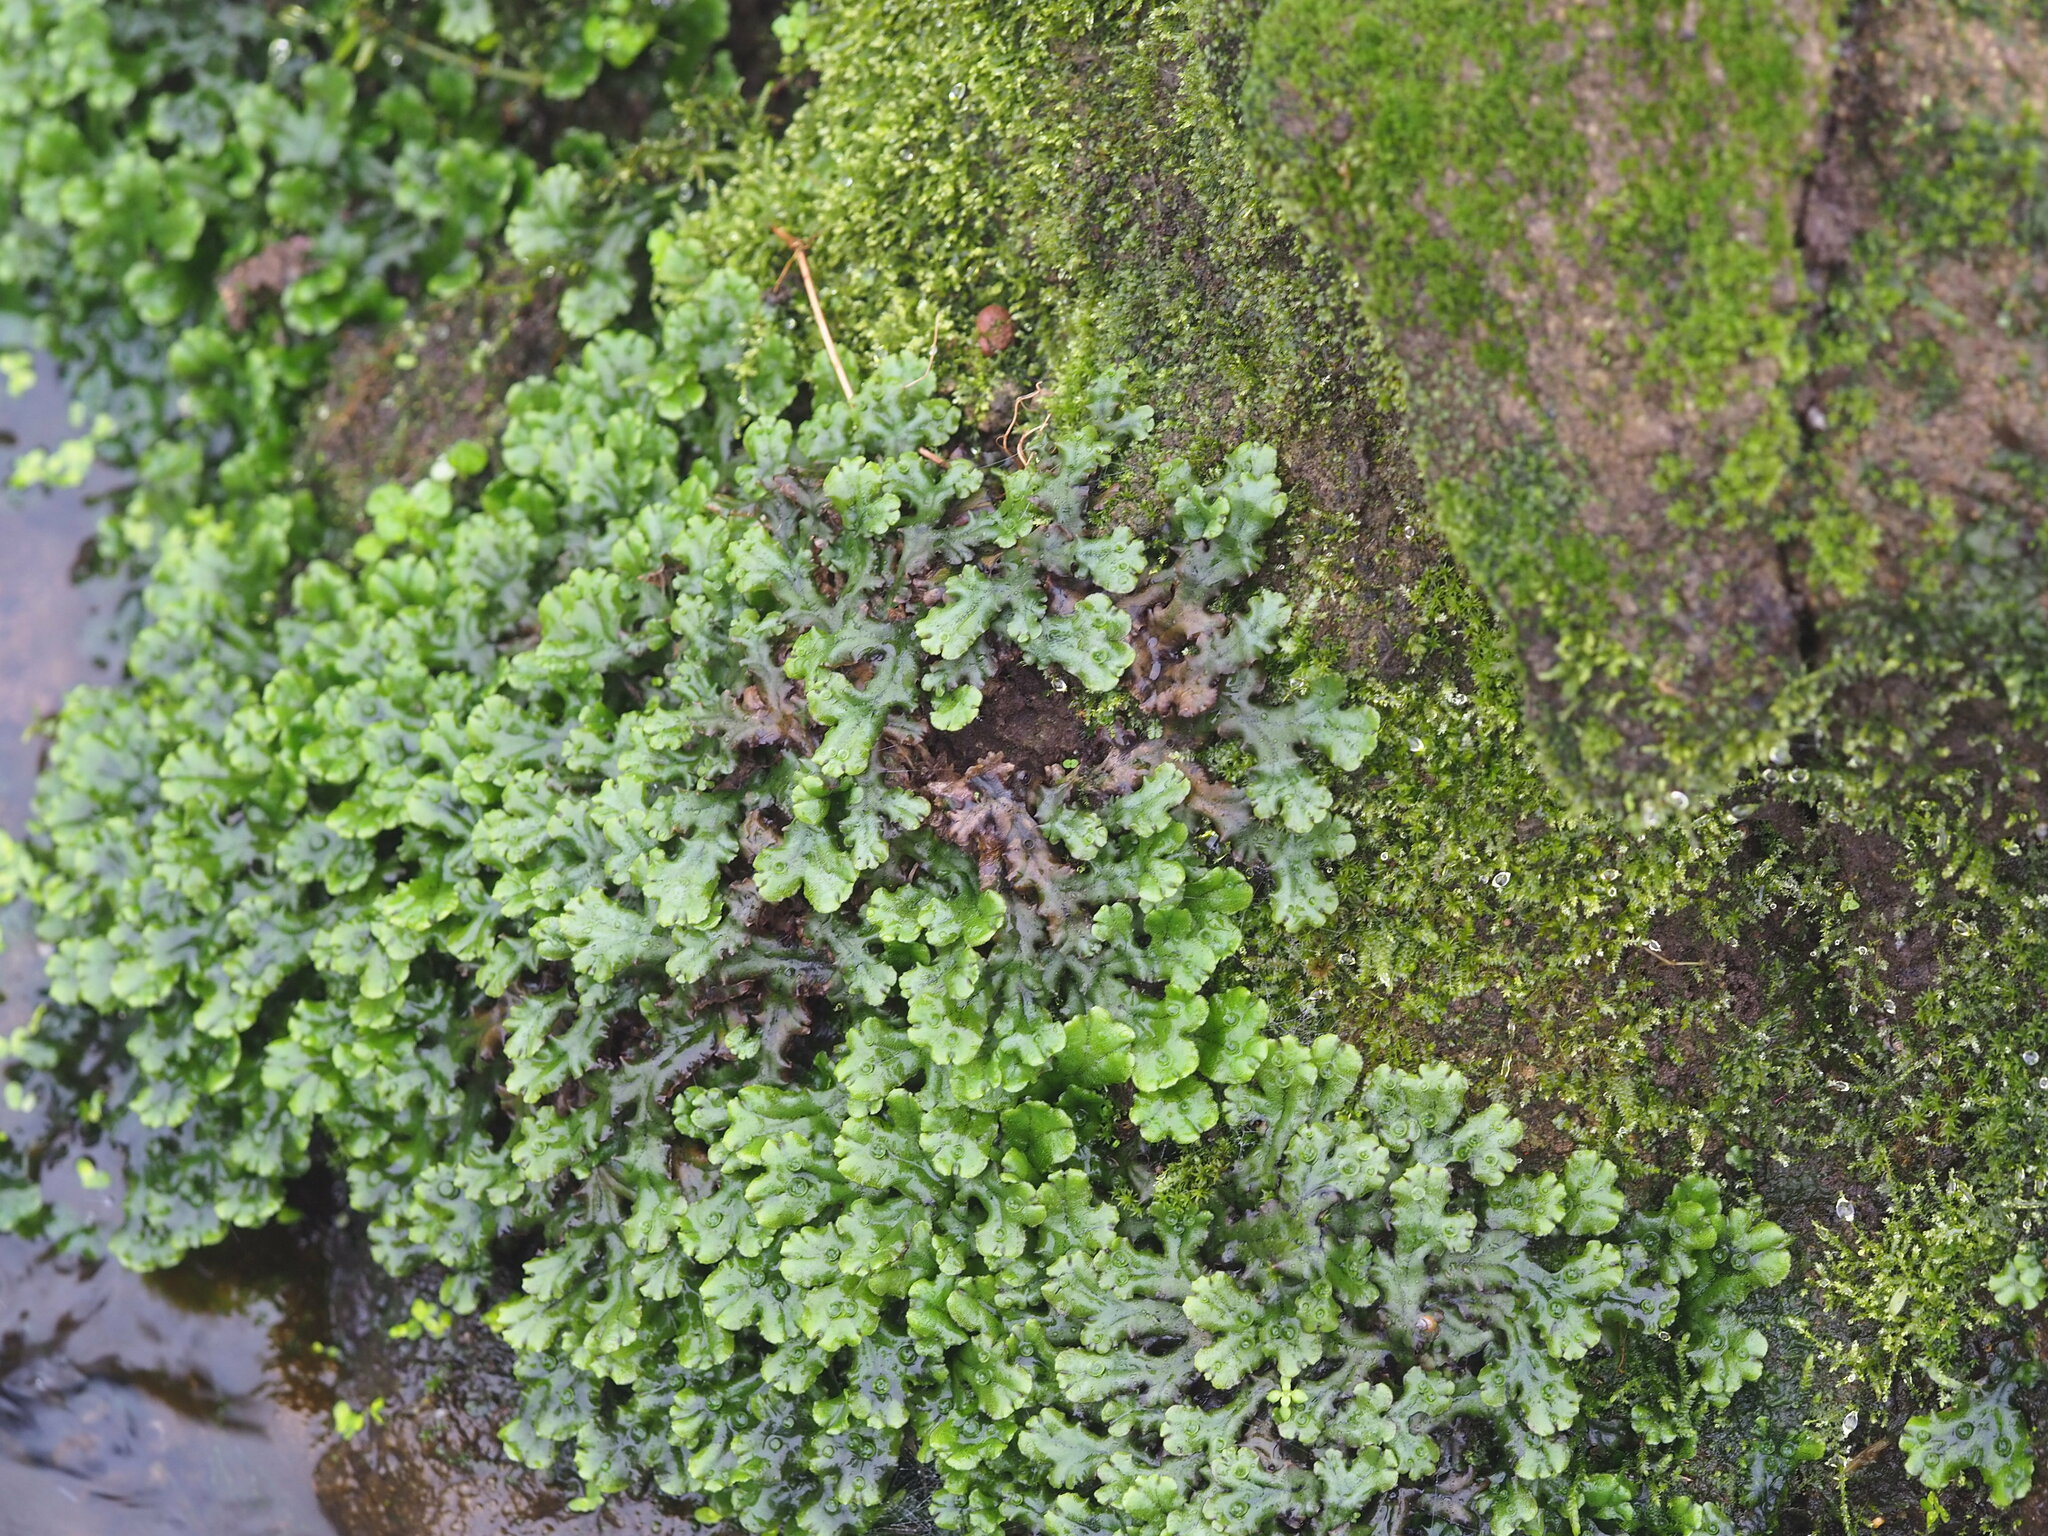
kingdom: Plantae
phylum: Marchantiophyta
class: Marchantiopsida
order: Marchantiales
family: Marchantiaceae
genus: Marchantia
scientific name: Marchantia polymorpha
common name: Common liverwort
